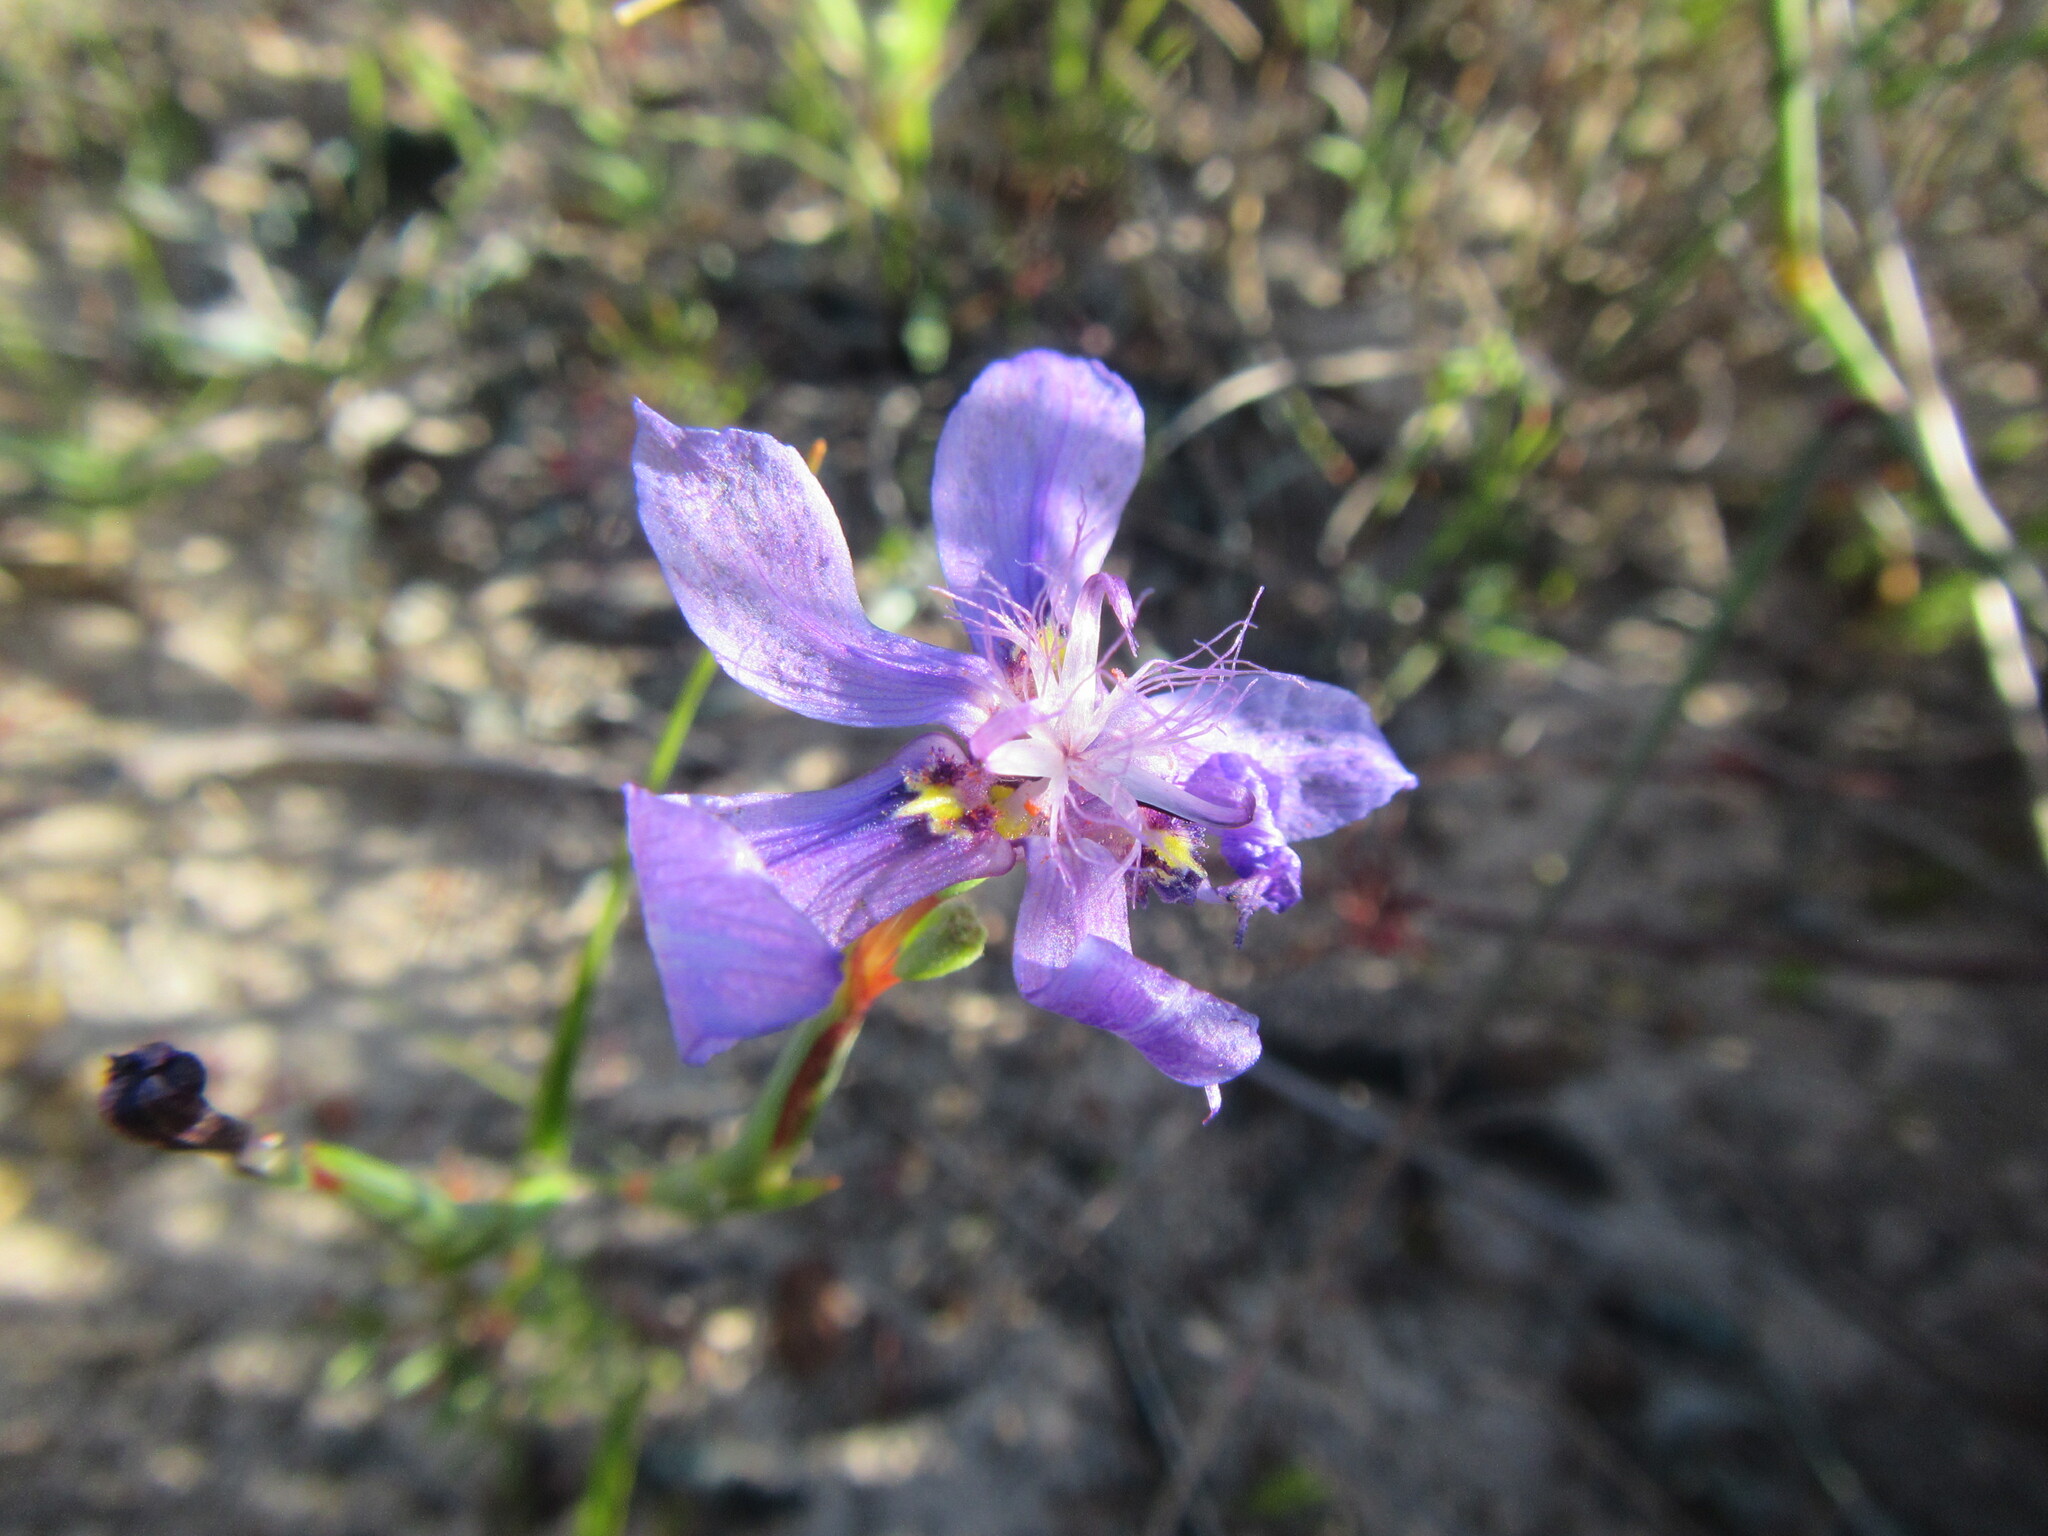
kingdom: Plantae
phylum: Tracheophyta
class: Liliopsida
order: Asparagales
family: Iridaceae
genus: Moraea
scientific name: Moraea lugubris
